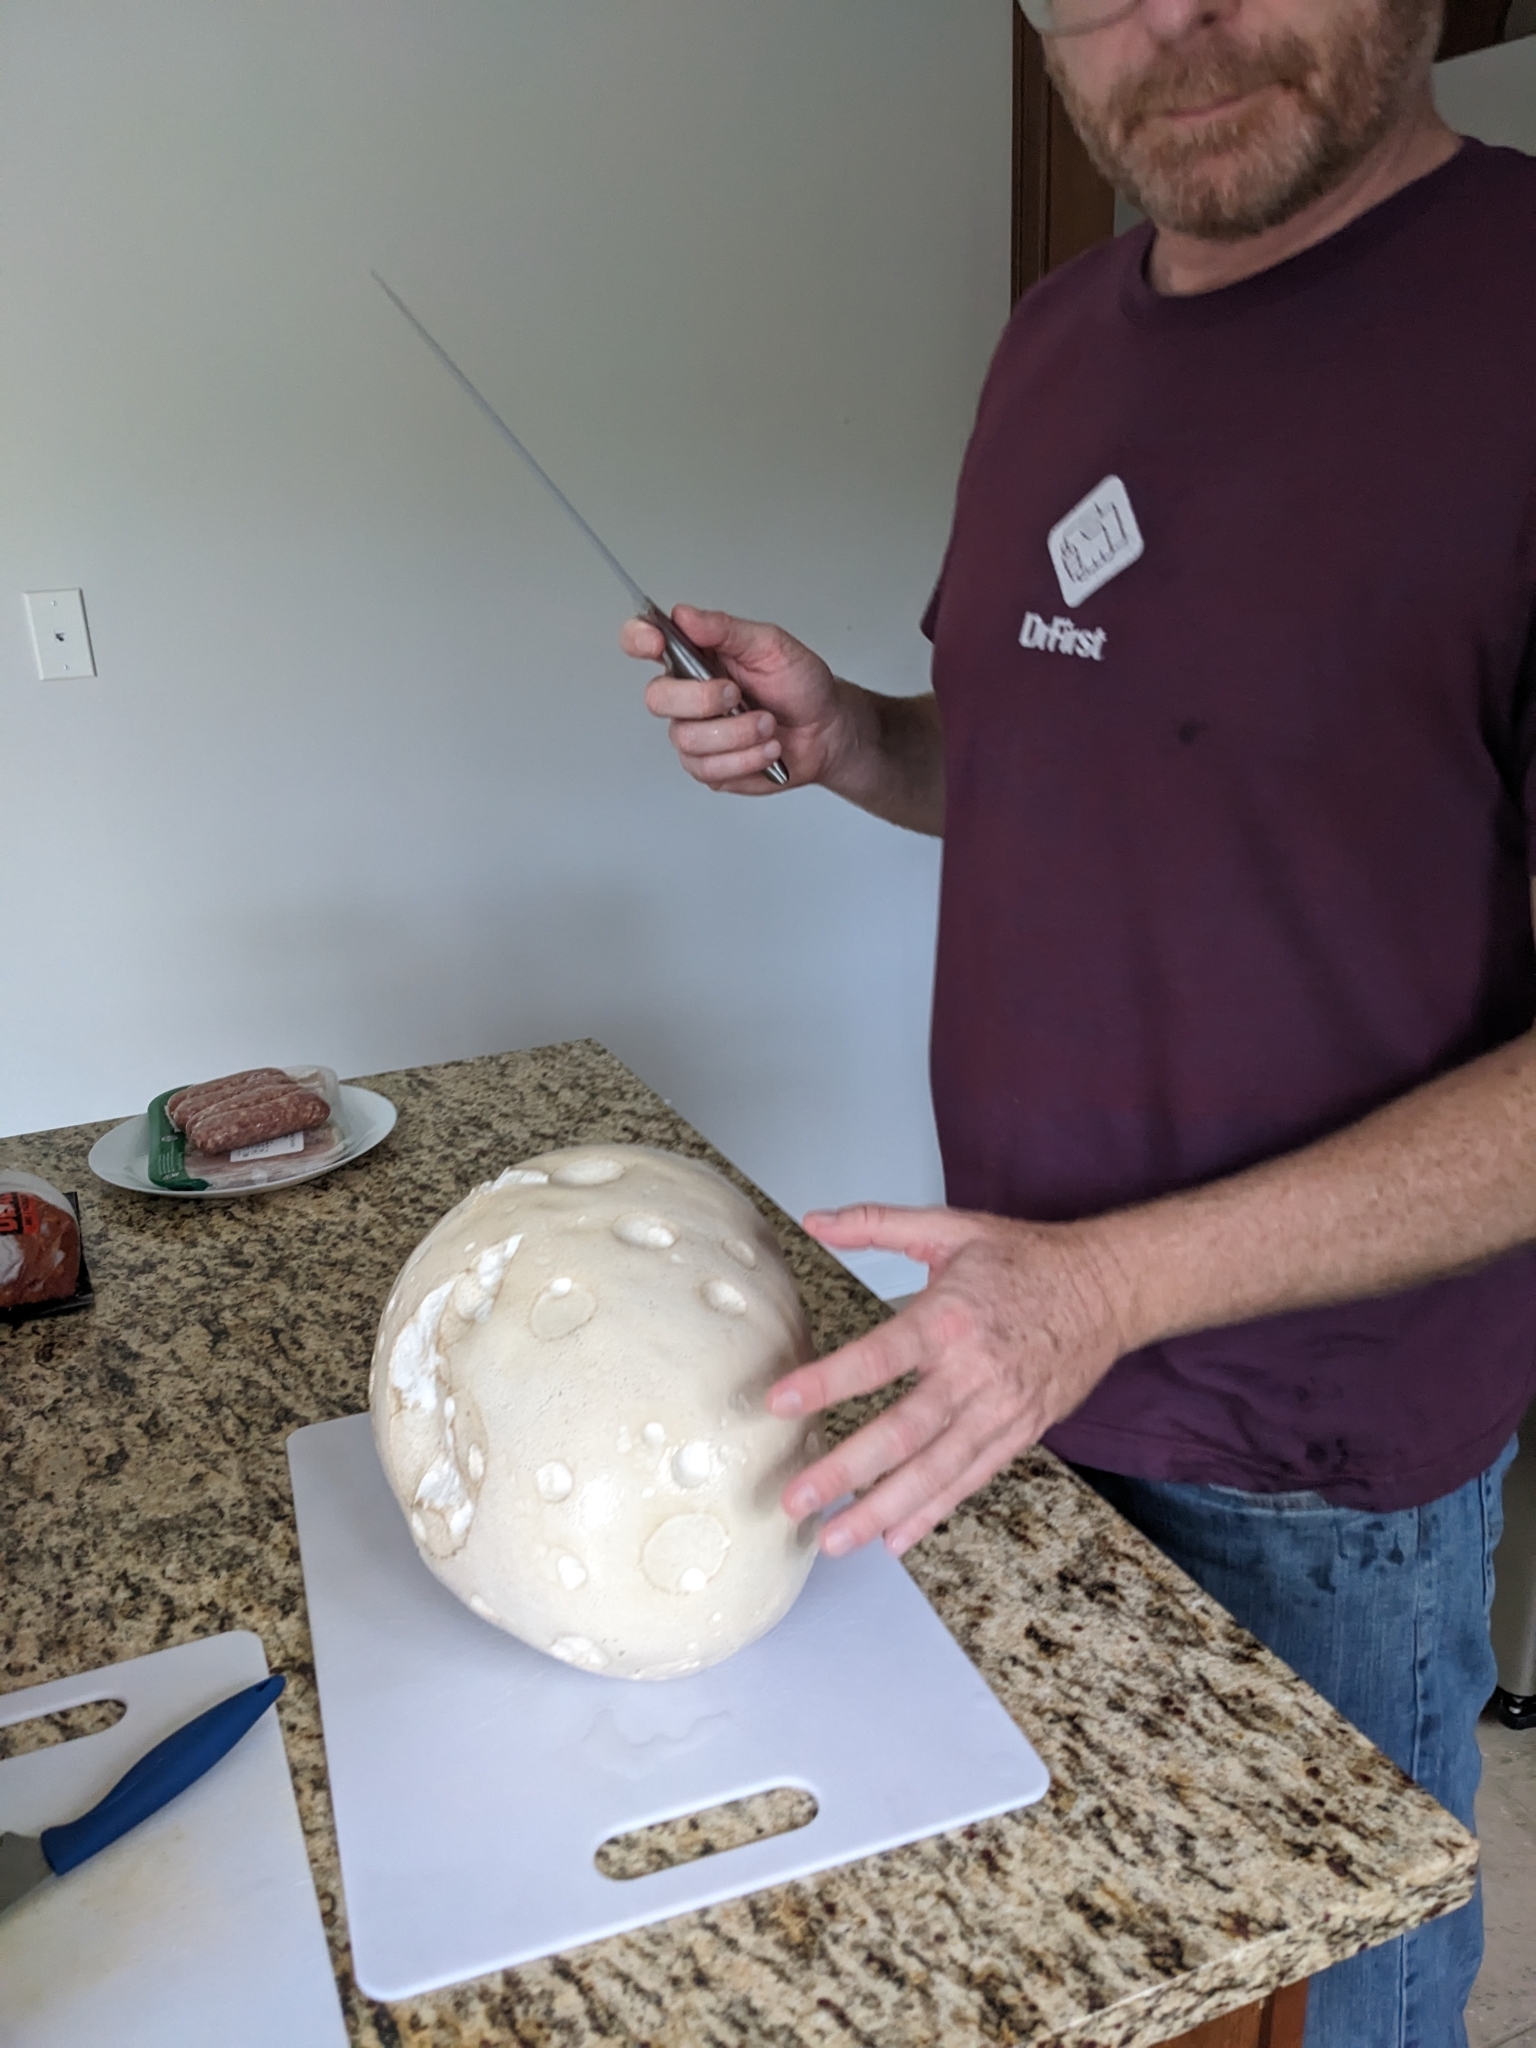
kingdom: Fungi
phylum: Basidiomycota
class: Agaricomycetes
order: Agaricales
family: Lycoperdaceae
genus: Calvatia
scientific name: Calvatia gigantea
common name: Giant puffball
